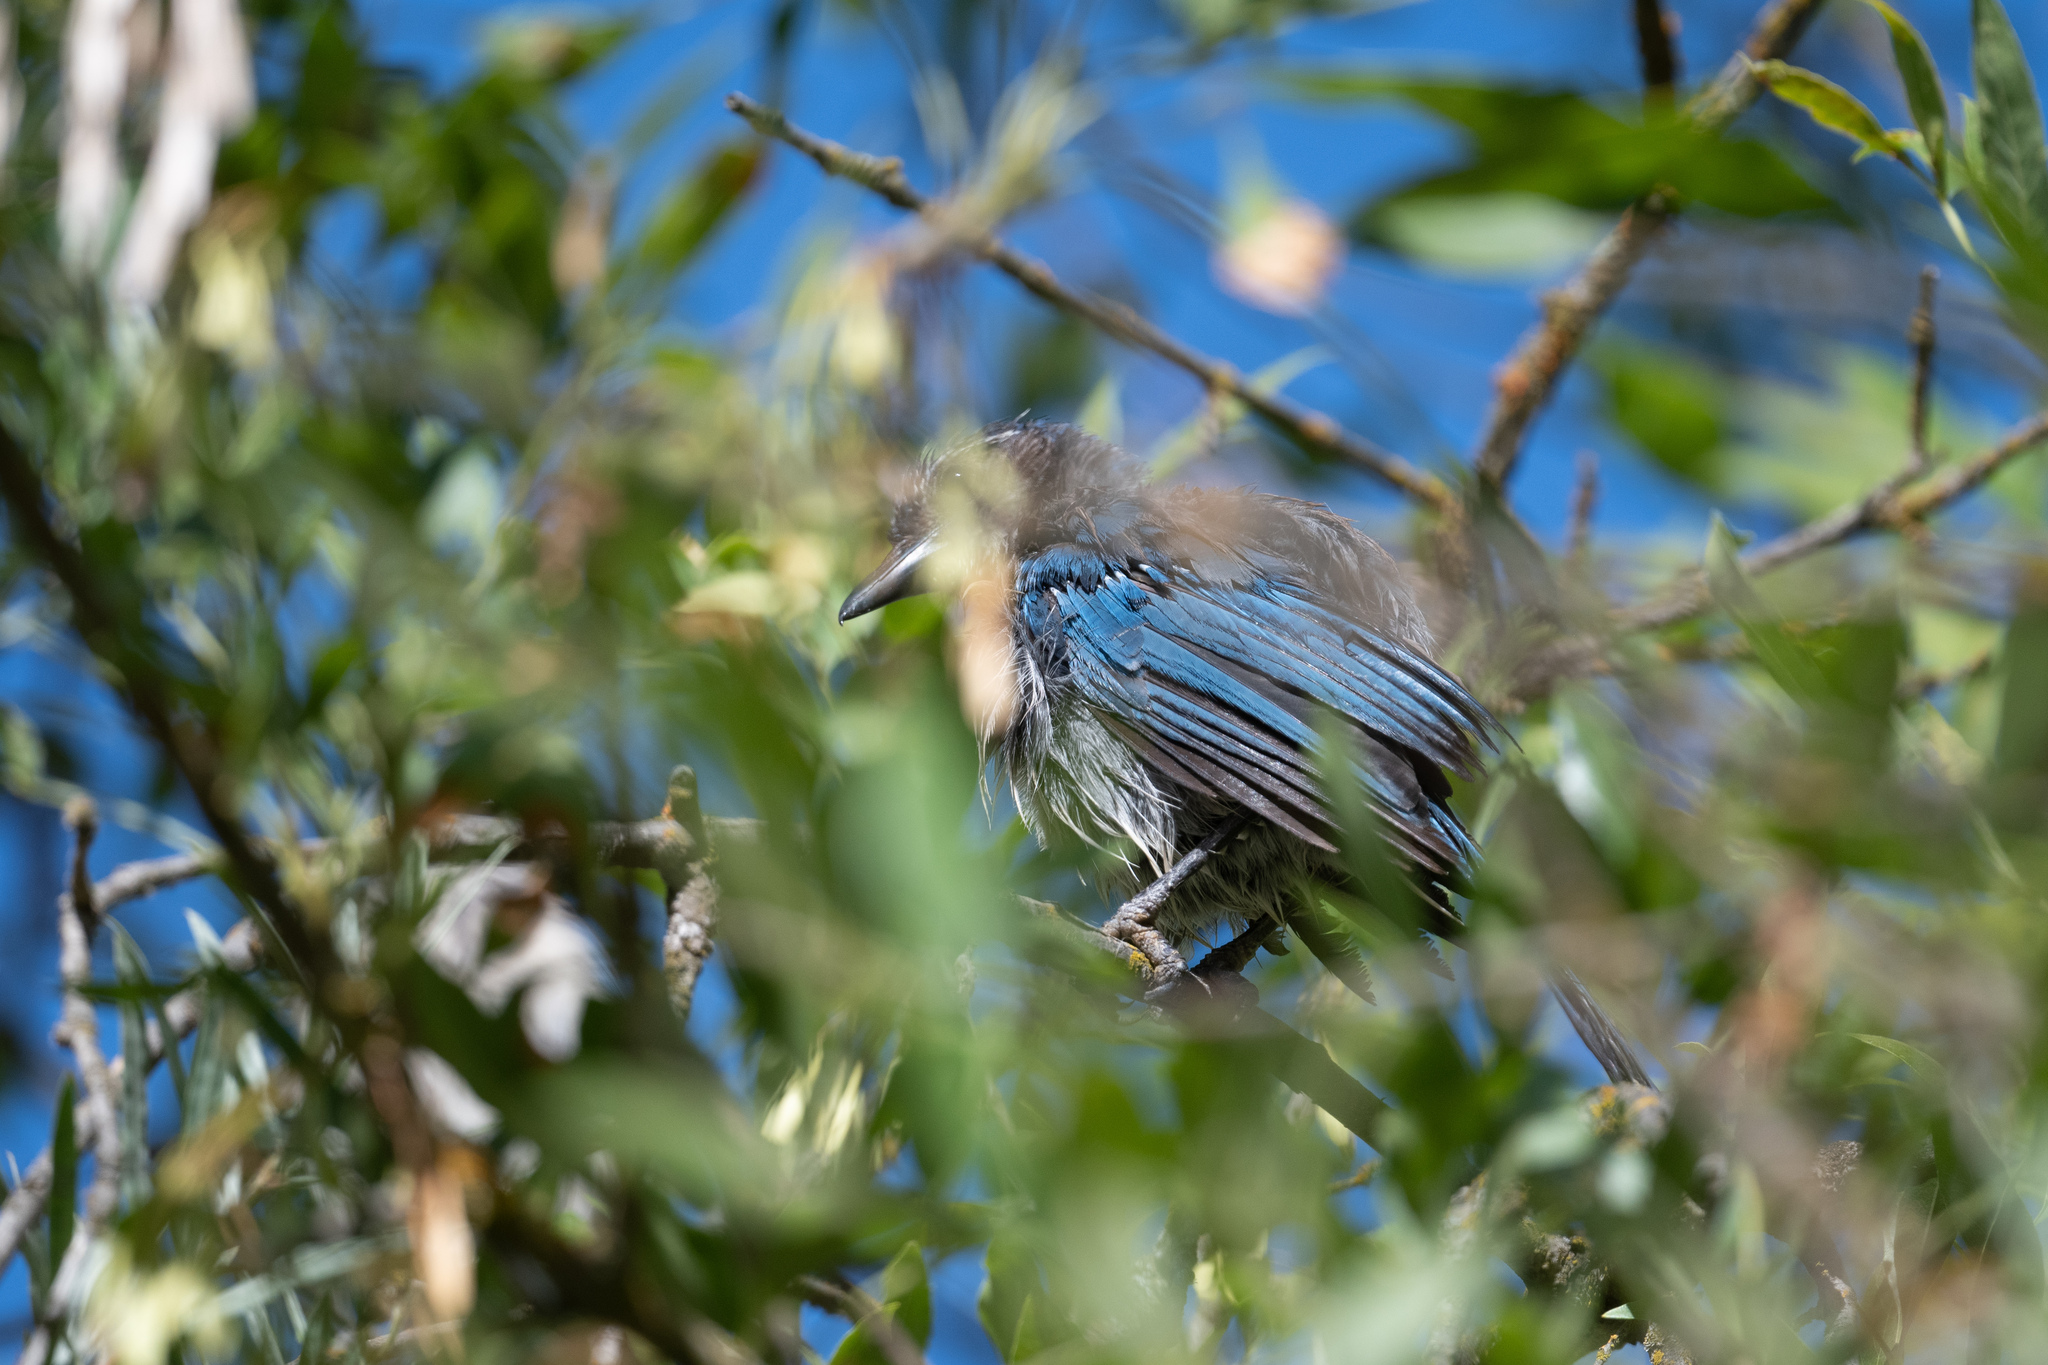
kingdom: Animalia
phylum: Chordata
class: Aves
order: Passeriformes
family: Corvidae
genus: Aphelocoma
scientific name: Aphelocoma californica
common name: California scrub-jay
